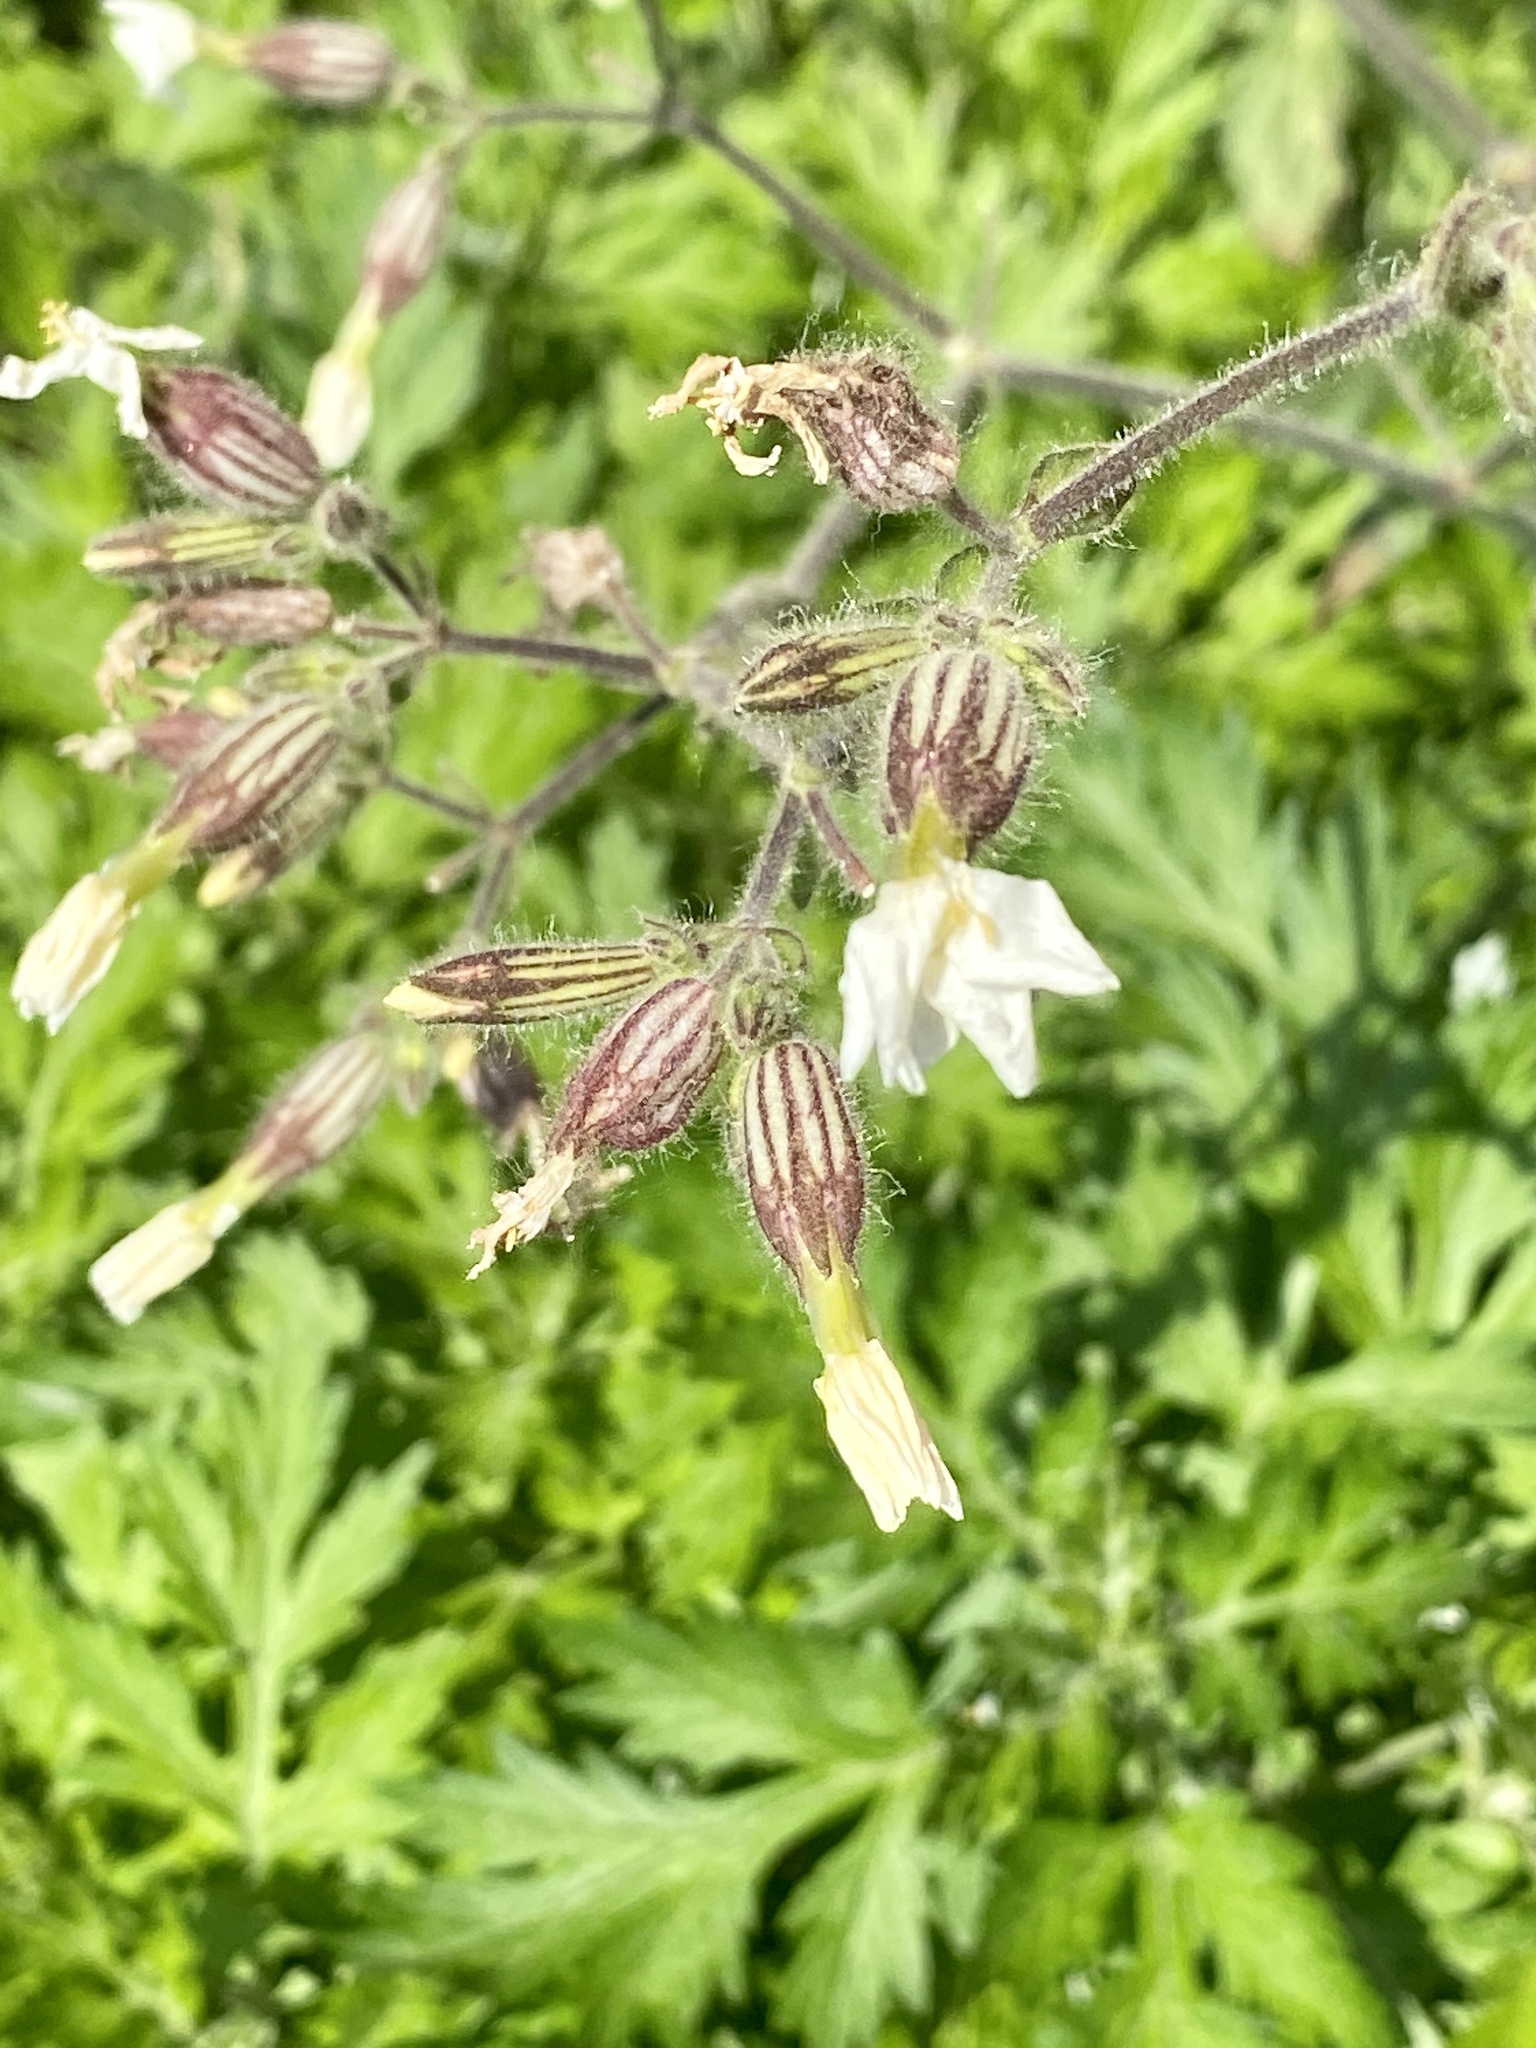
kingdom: Plantae
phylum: Tracheophyta
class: Magnoliopsida
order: Caryophyllales
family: Caryophyllaceae
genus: Silene
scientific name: Silene latifolia
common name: White campion
